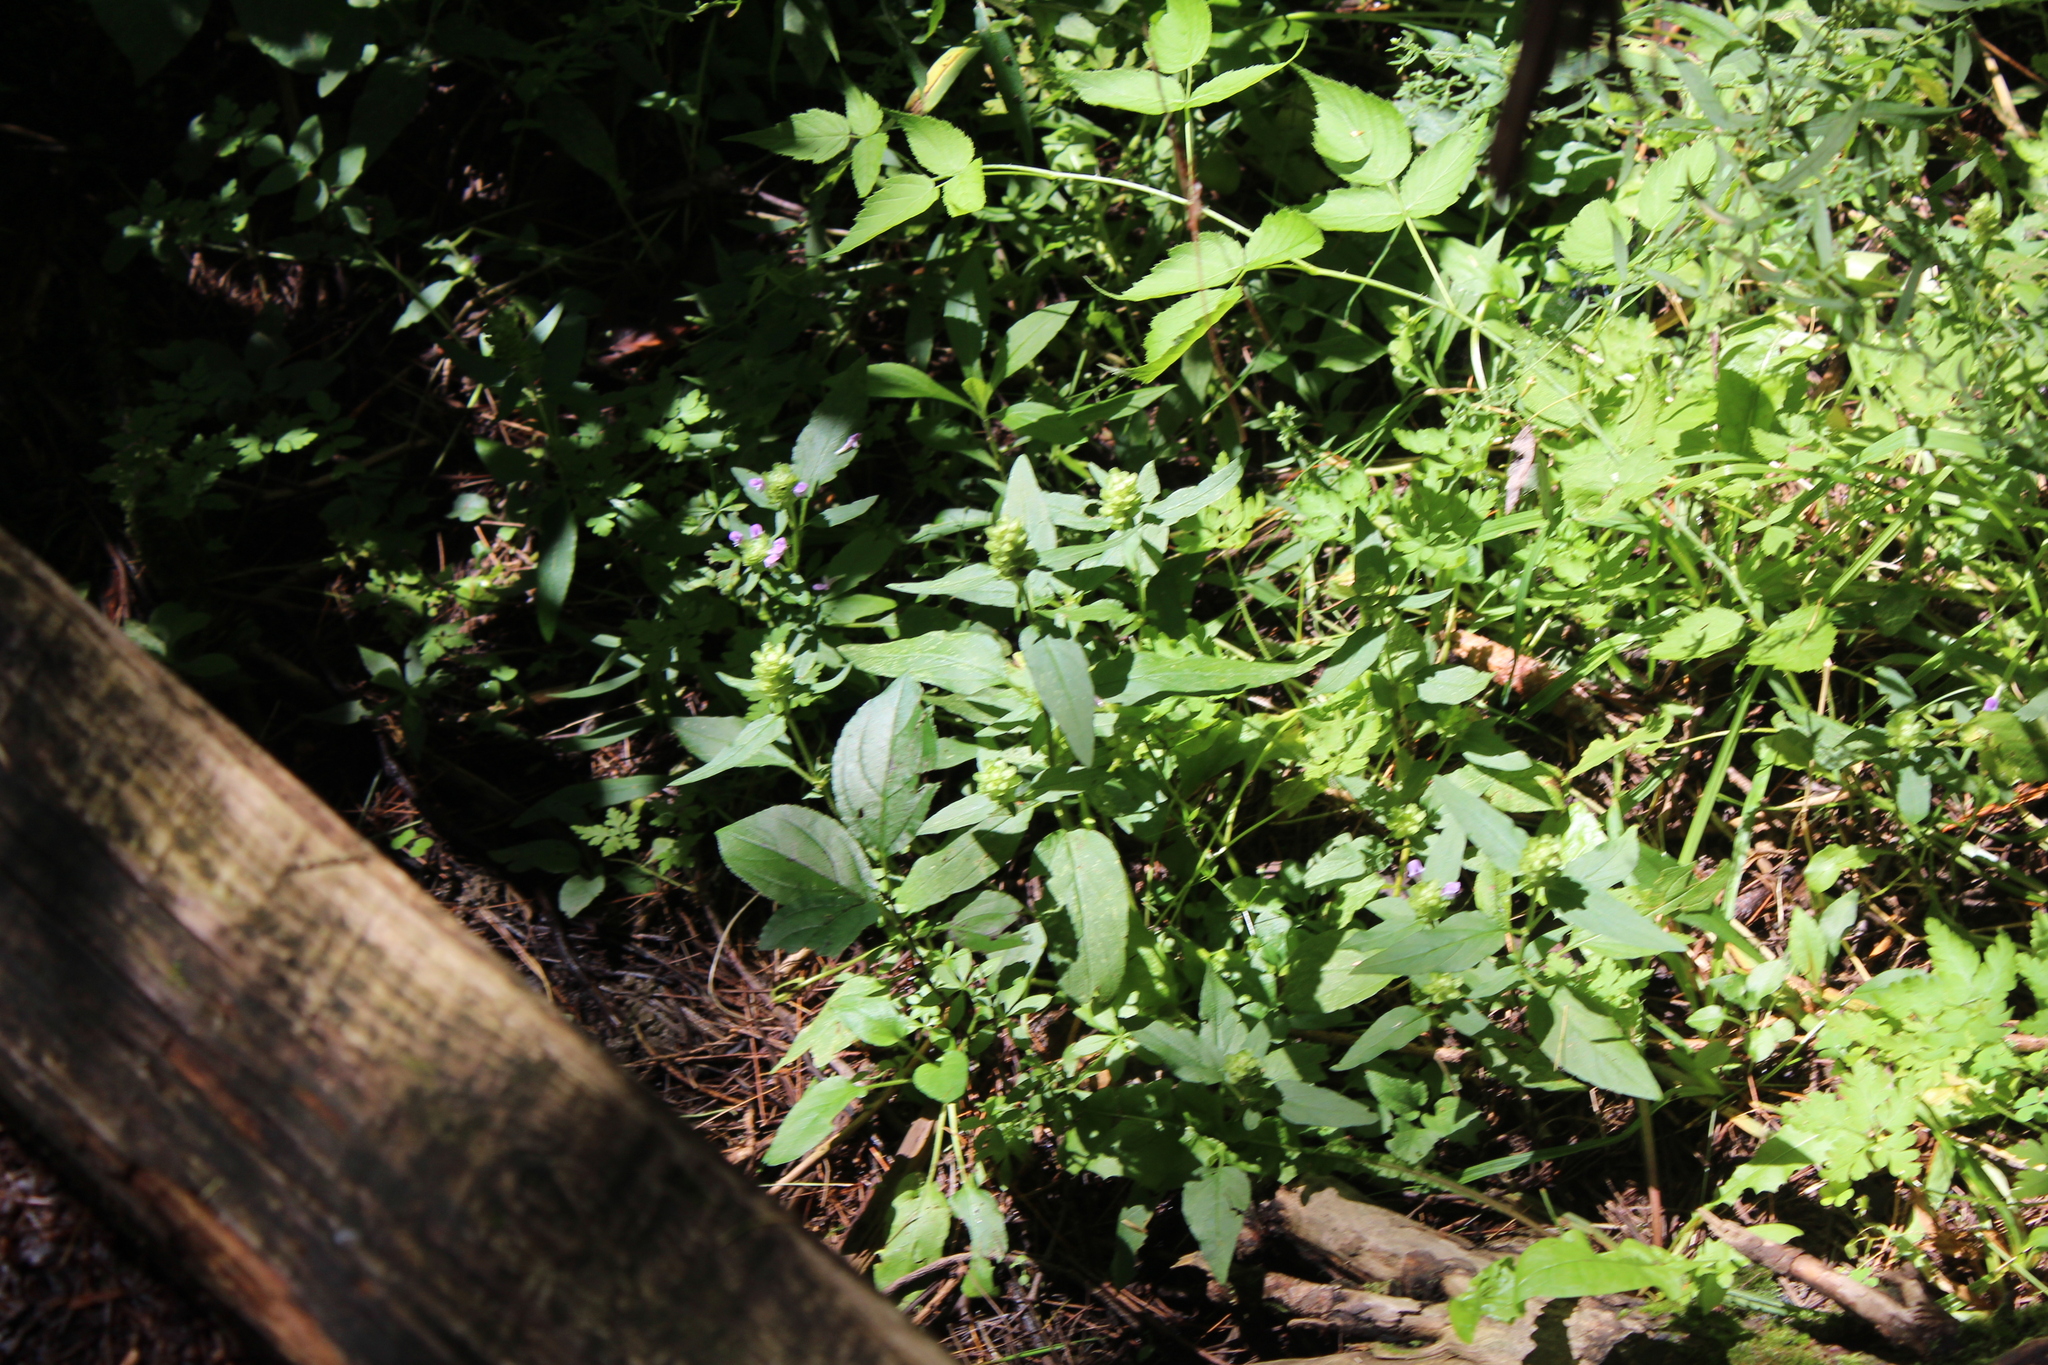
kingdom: Plantae
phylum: Tracheophyta
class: Magnoliopsida
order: Lamiales
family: Lamiaceae
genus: Prunella
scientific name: Prunella vulgaris
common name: Heal-all
